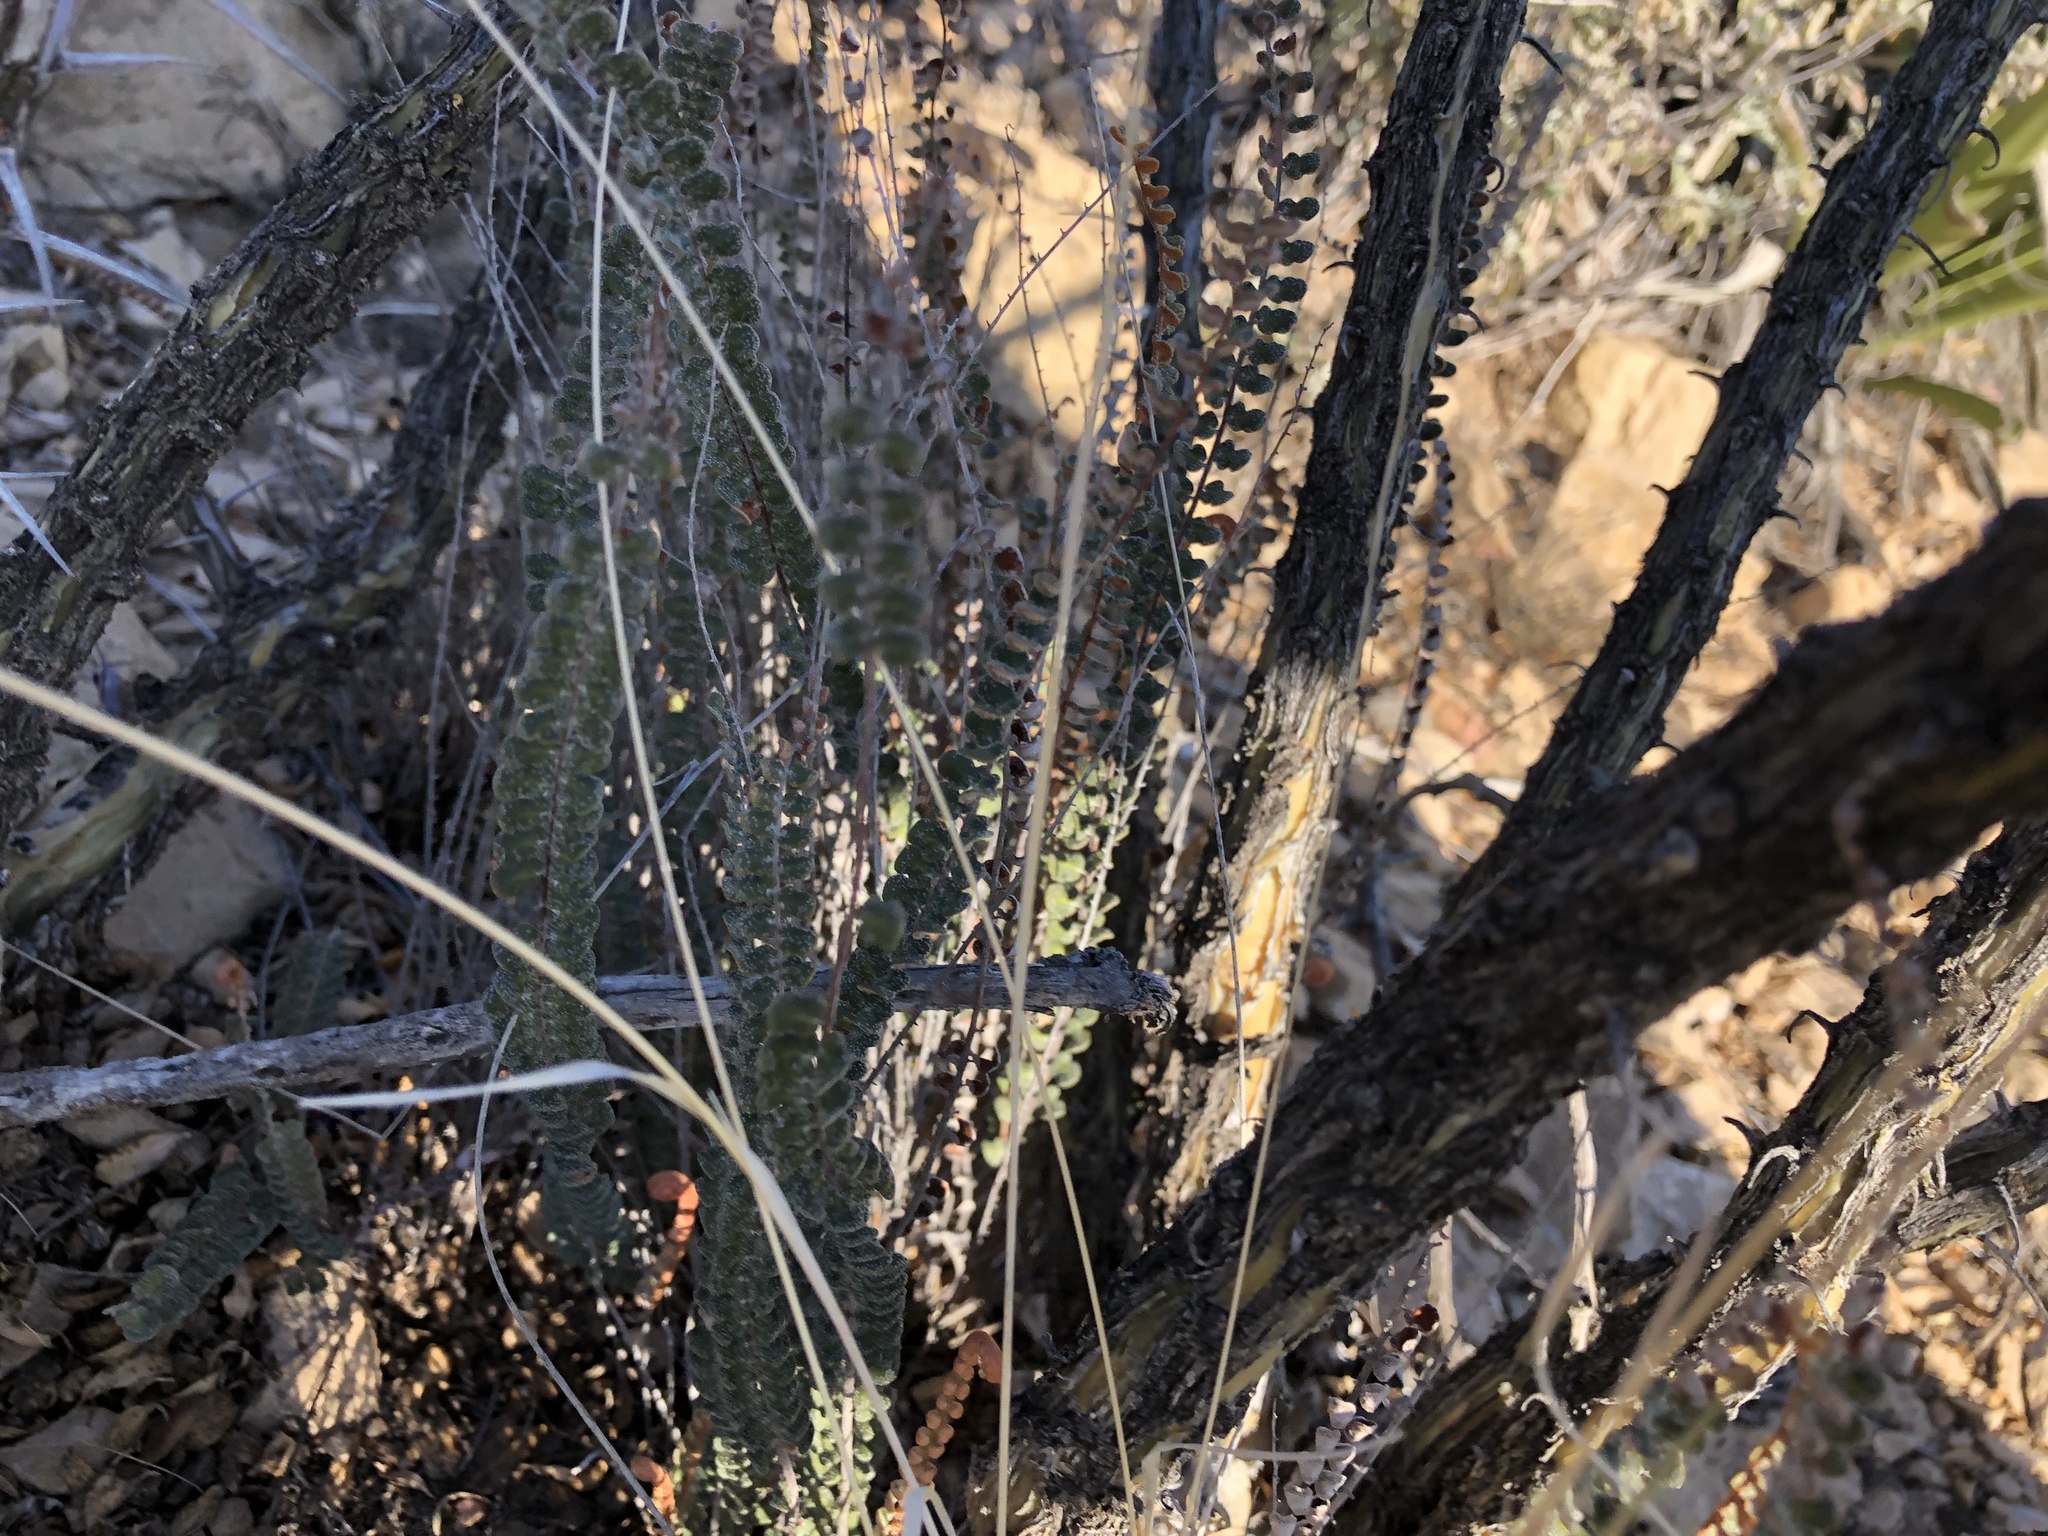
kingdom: Plantae
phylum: Tracheophyta
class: Polypodiopsida
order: Polypodiales
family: Pteridaceae
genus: Astrolepis
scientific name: Astrolepis cochisensis
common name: Scaly cloak fern
